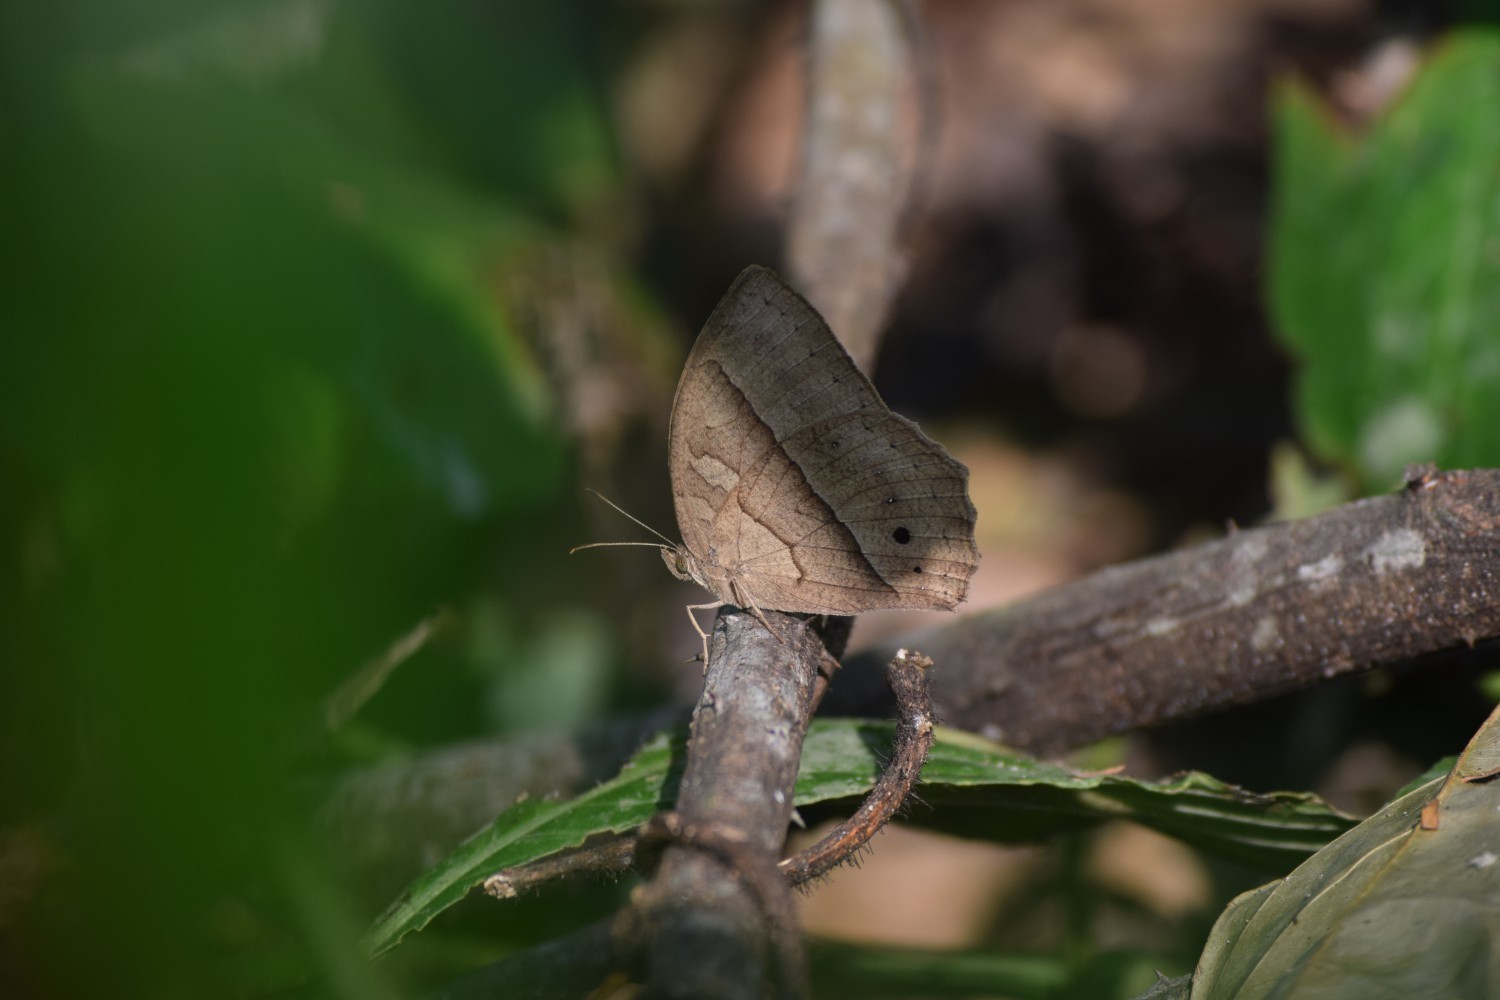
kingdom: Animalia
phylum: Arthropoda
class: Insecta
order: Lepidoptera
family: Nymphalidae
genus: Mycalesis
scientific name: Mycalesis visala
